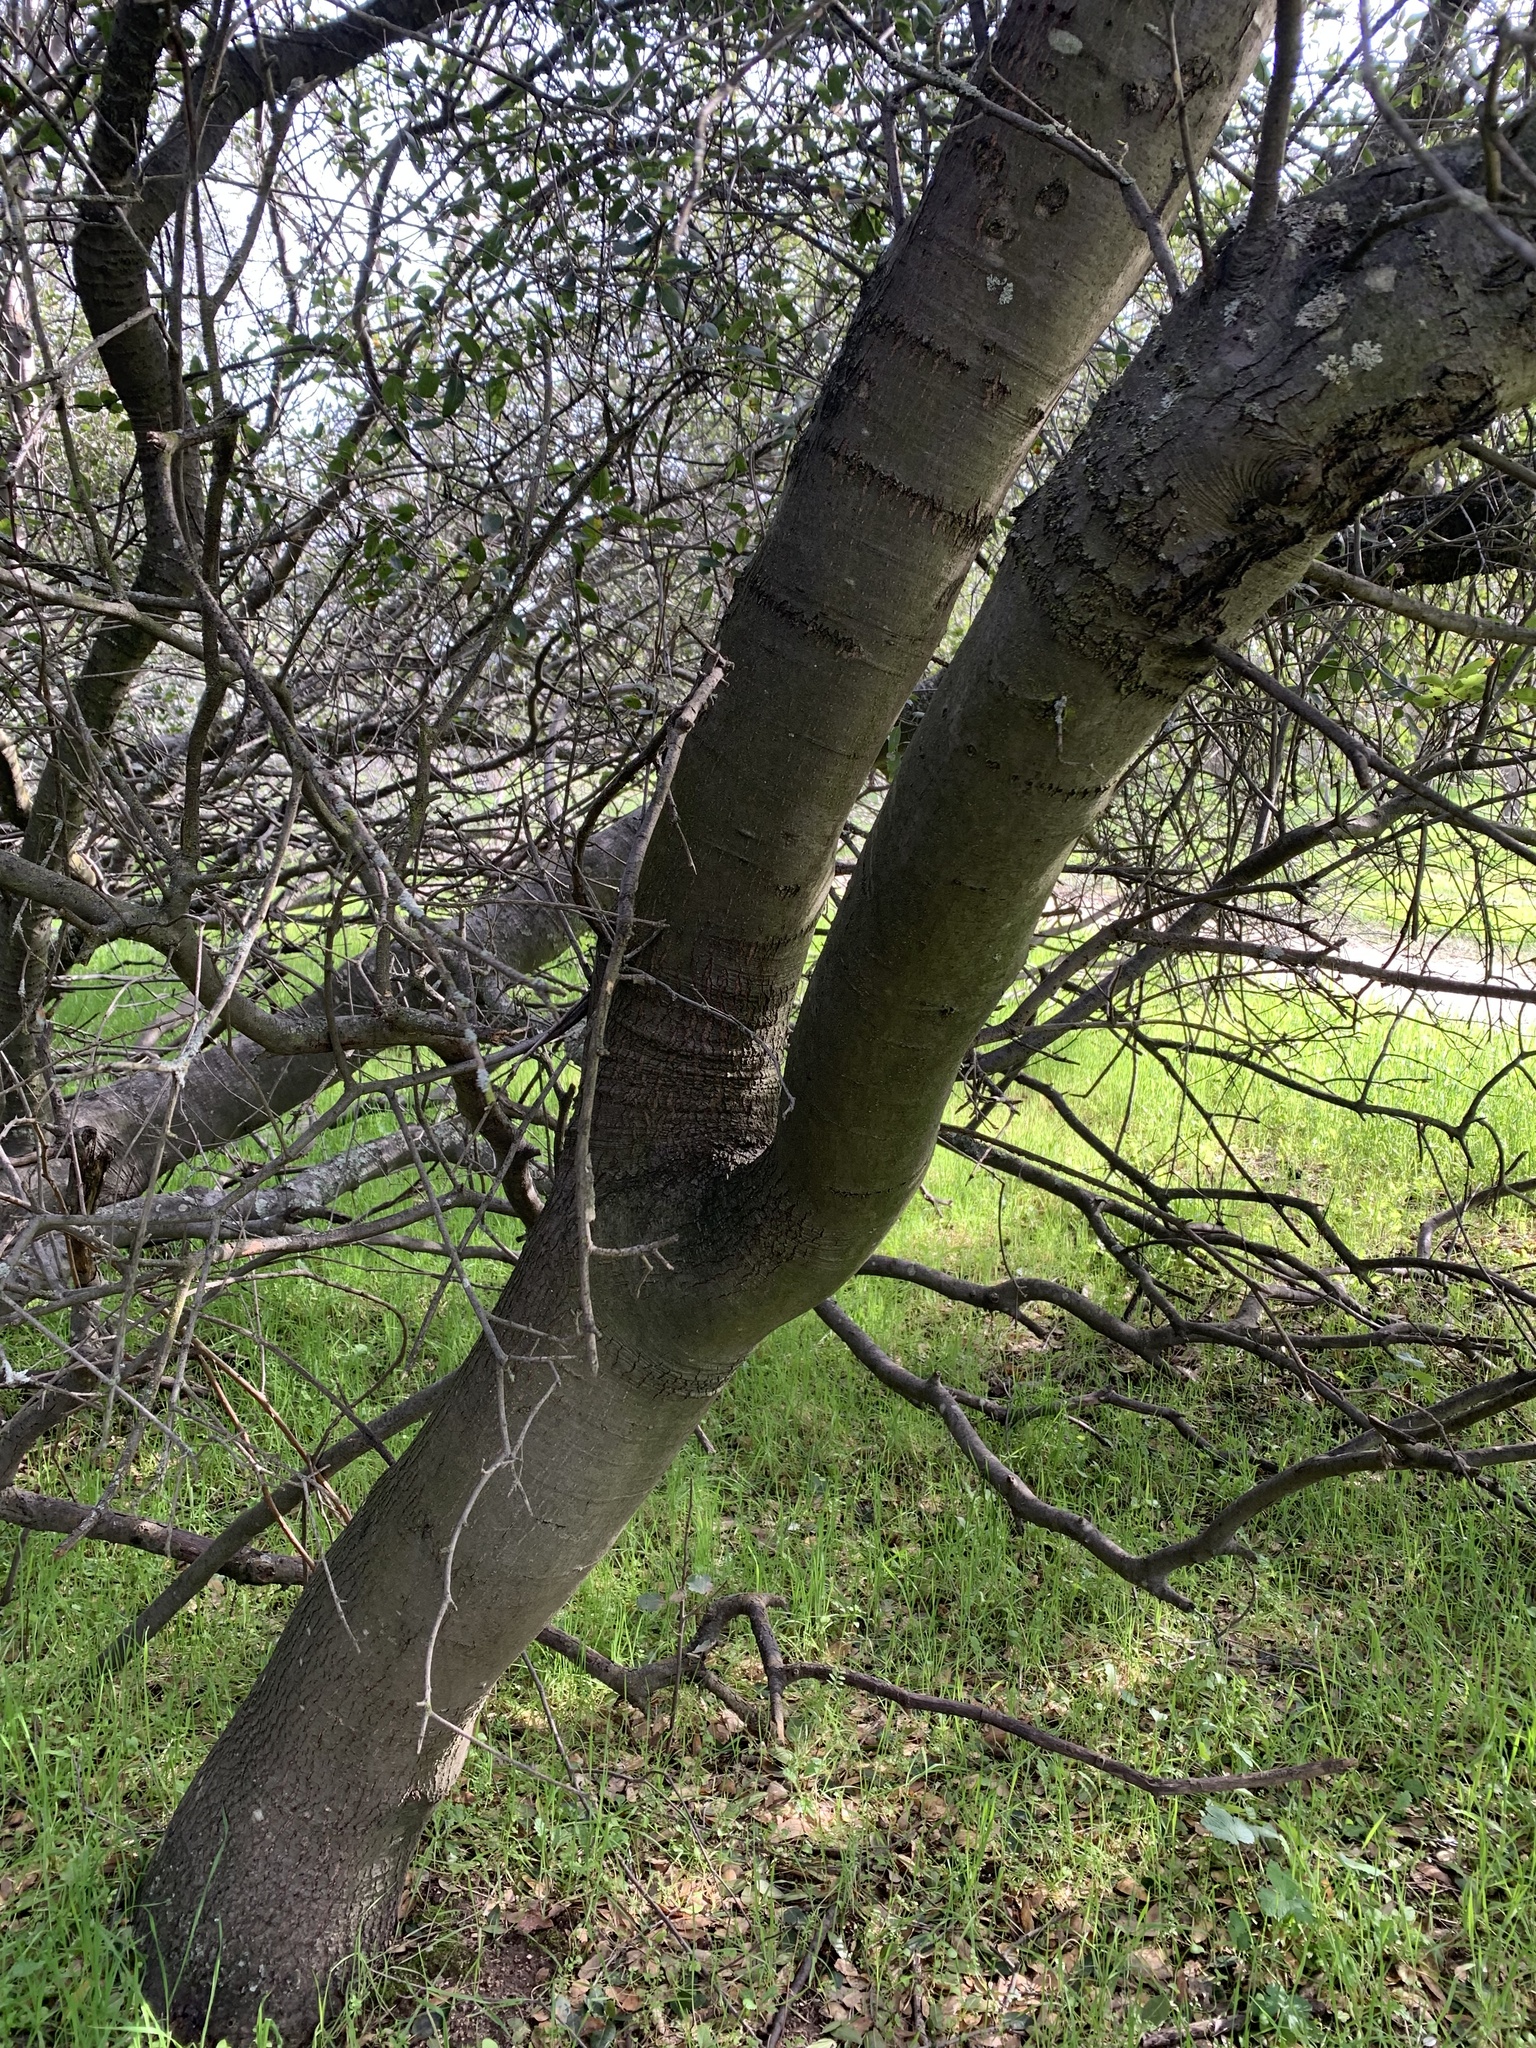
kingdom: Plantae
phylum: Tracheophyta
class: Magnoliopsida
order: Fagales
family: Fagaceae
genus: Quercus
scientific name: Quercus wislizeni
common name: Interior live oak
